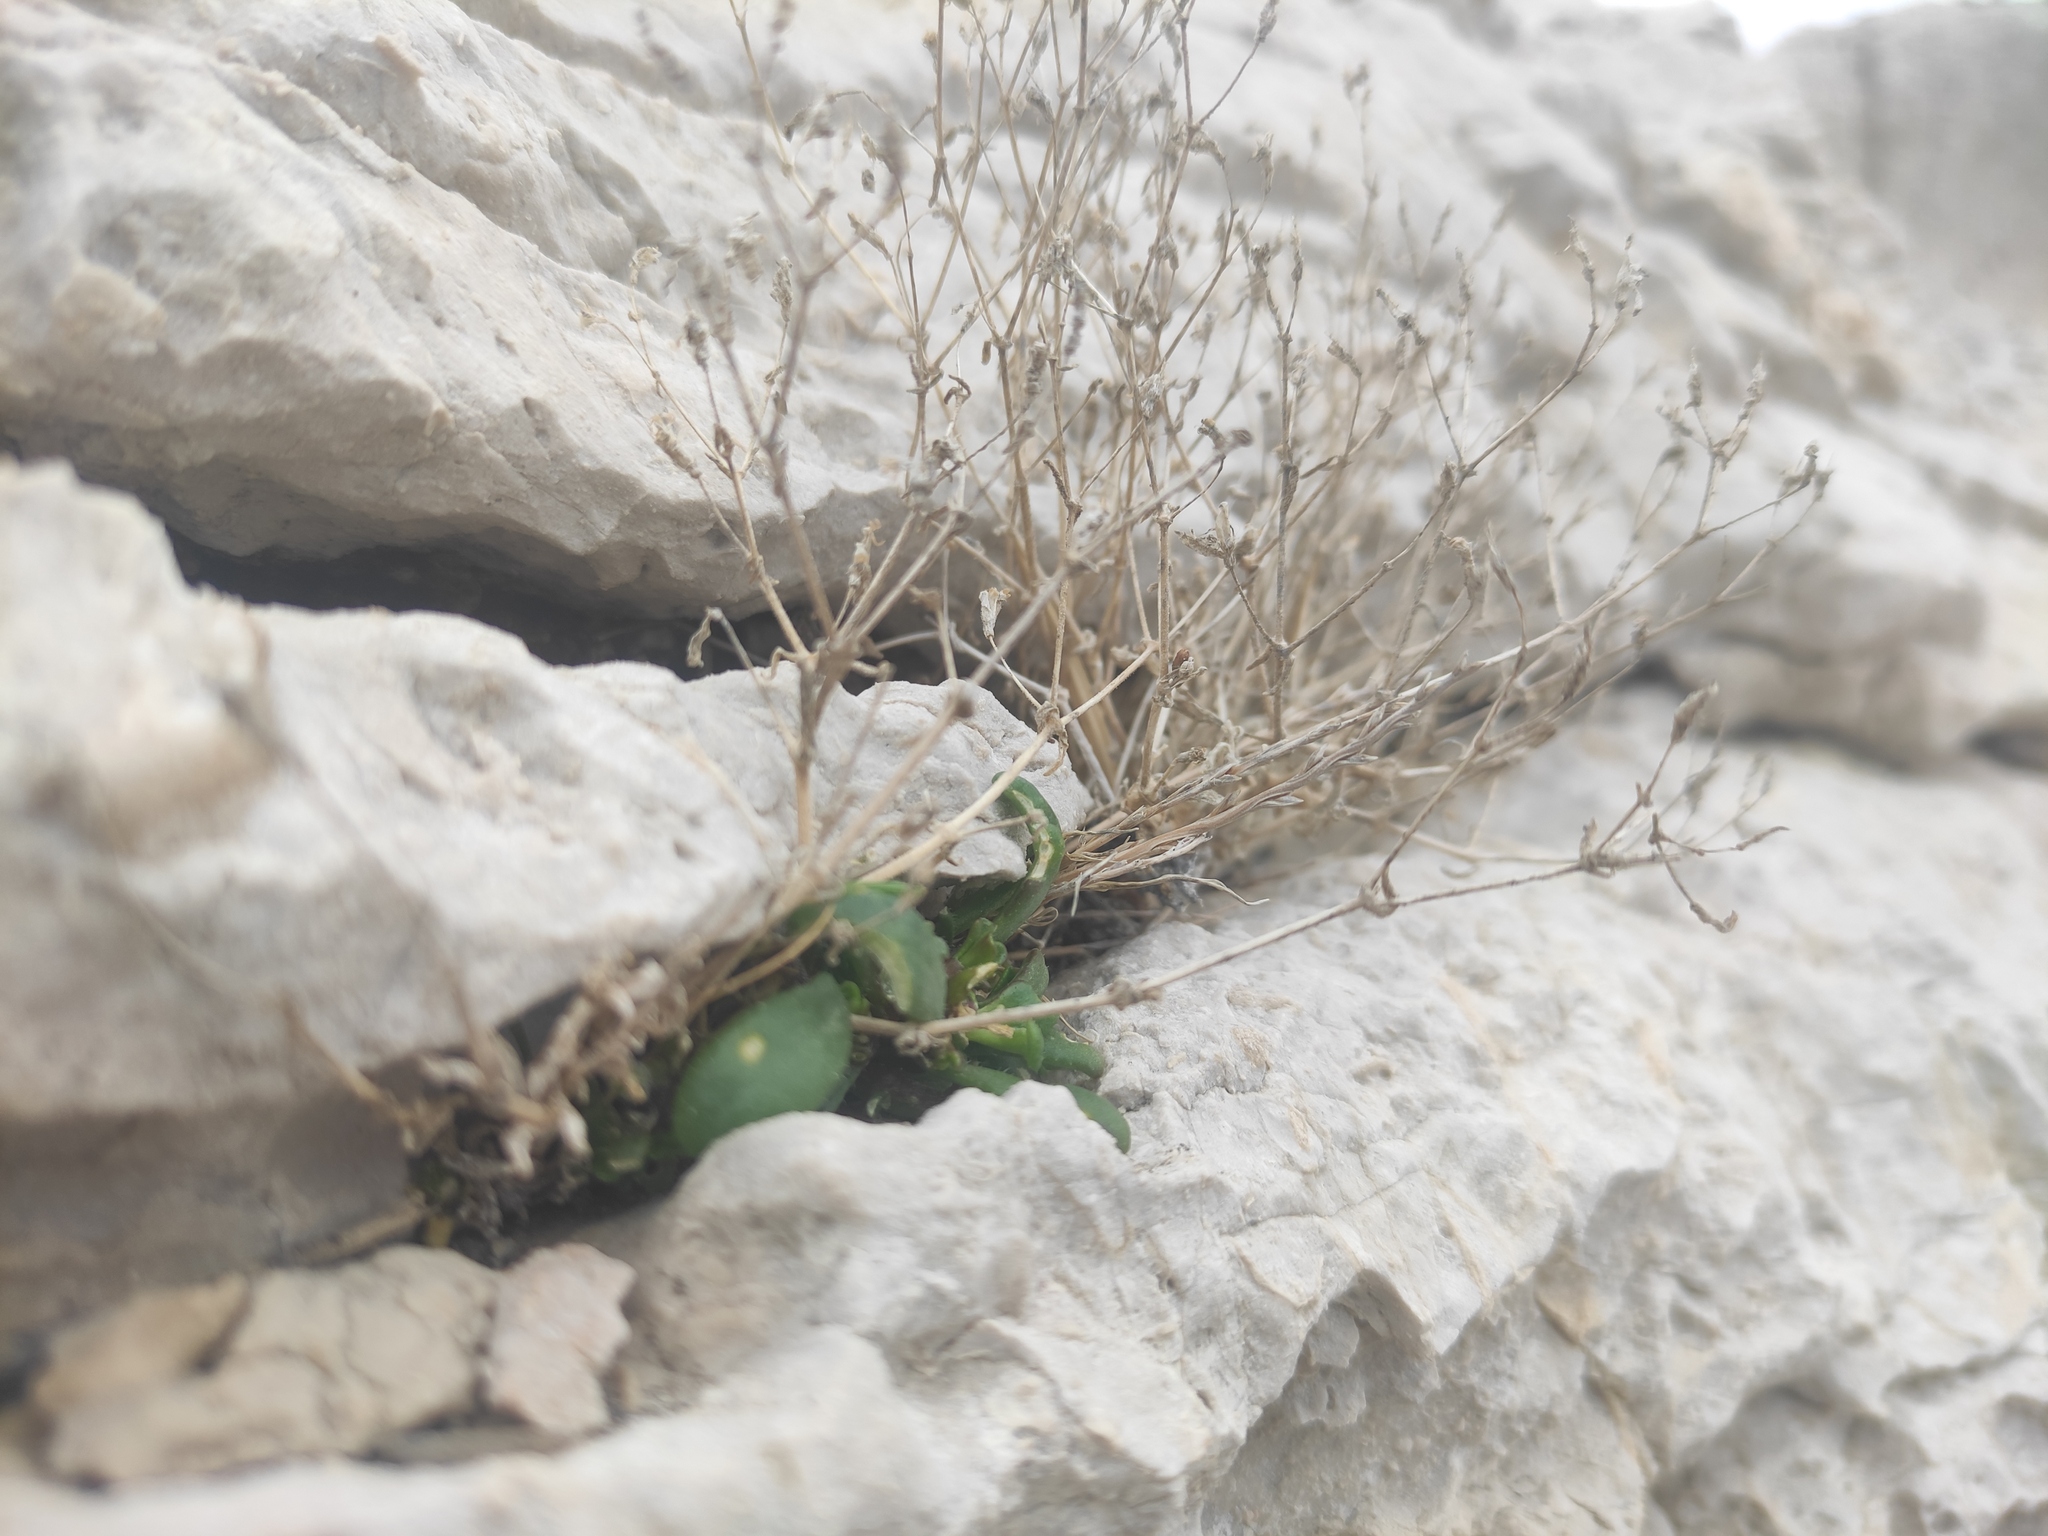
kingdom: Plantae
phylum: Tracheophyta
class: Magnoliopsida
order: Caryophyllales
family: Caryophyllaceae
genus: Silene
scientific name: Silene sedoides
